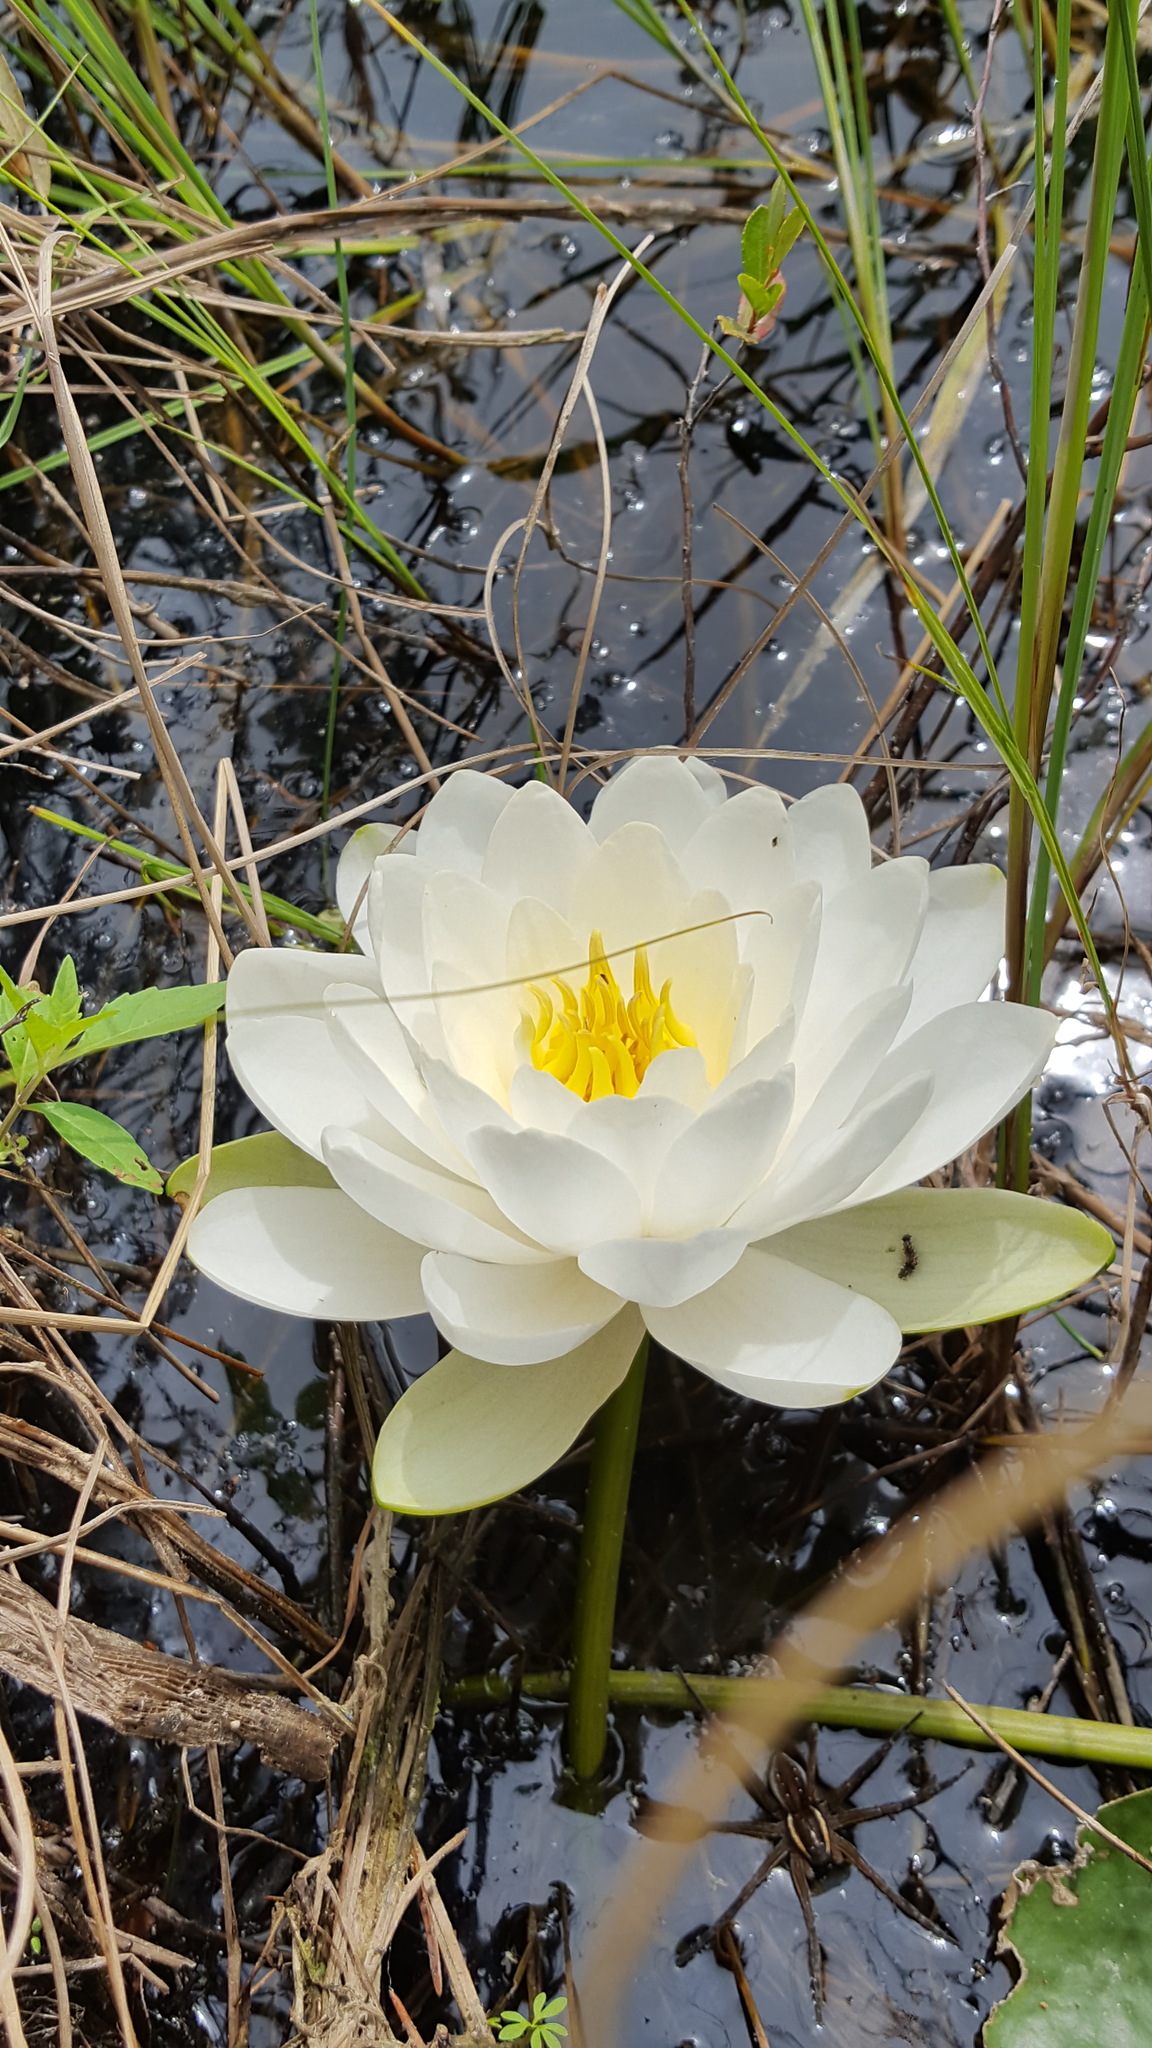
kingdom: Plantae
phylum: Tracheophyta
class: Magnoliopsida
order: Nymphaeales
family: Nymphaeaceae
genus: Nymphaea
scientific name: Nymphaea odorata
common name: Fragrant water-lily
